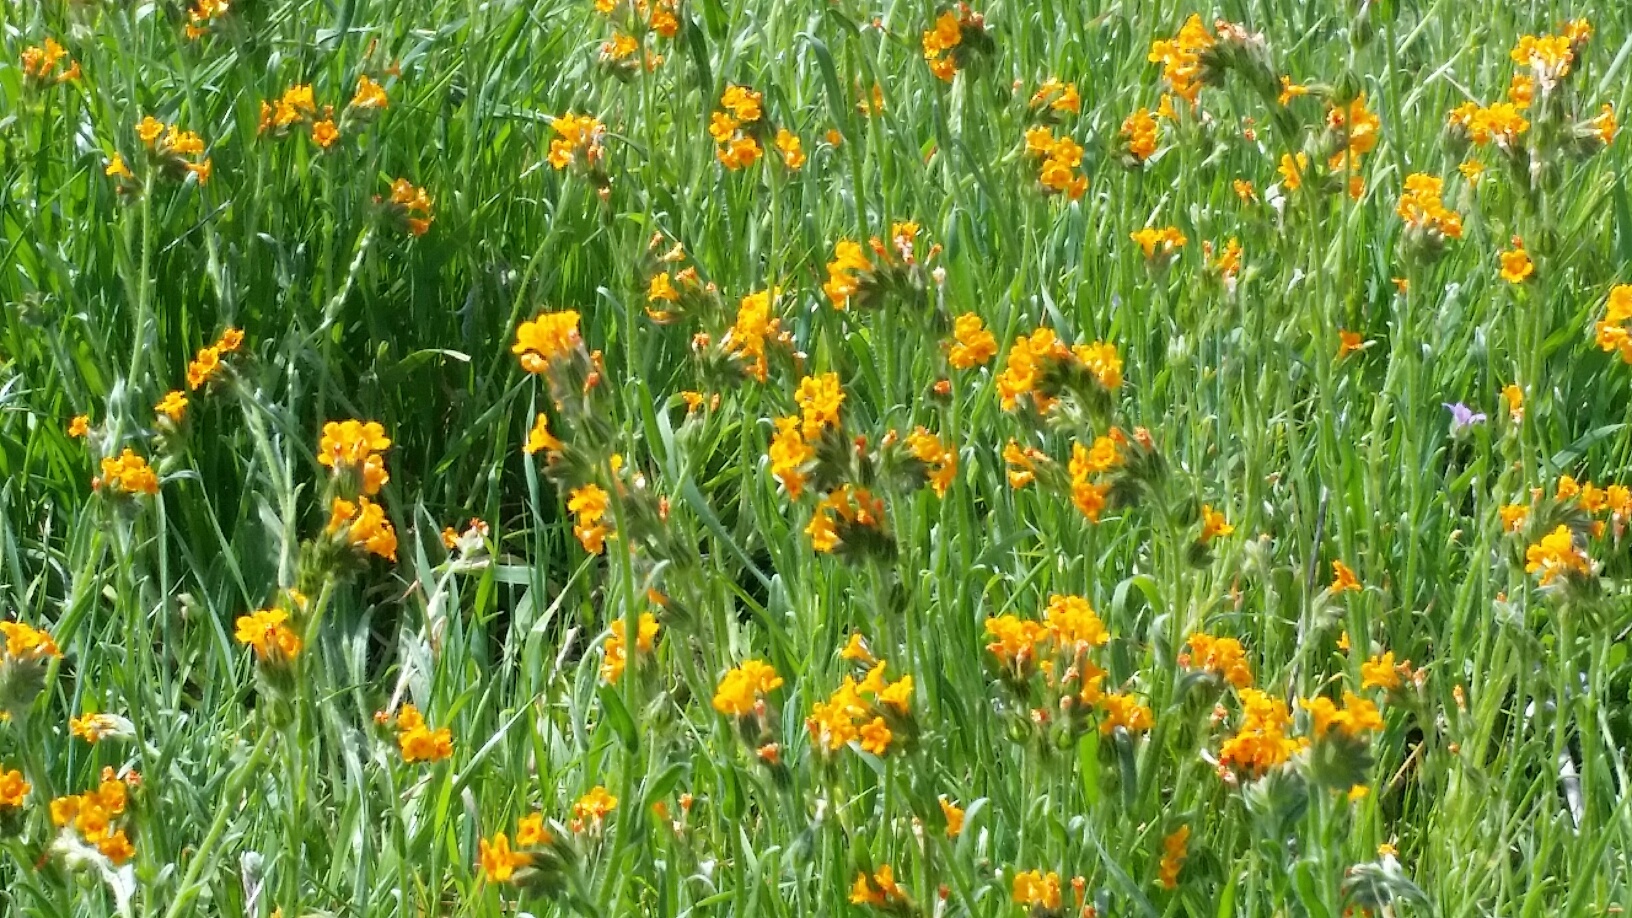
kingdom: Plantae
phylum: Tracheophyta
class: Magnoliopsida
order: Boraginales
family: Boraginaceae
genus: Amsinckia
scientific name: Amsinckia menziesii
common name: Menzies' fiddleneck
